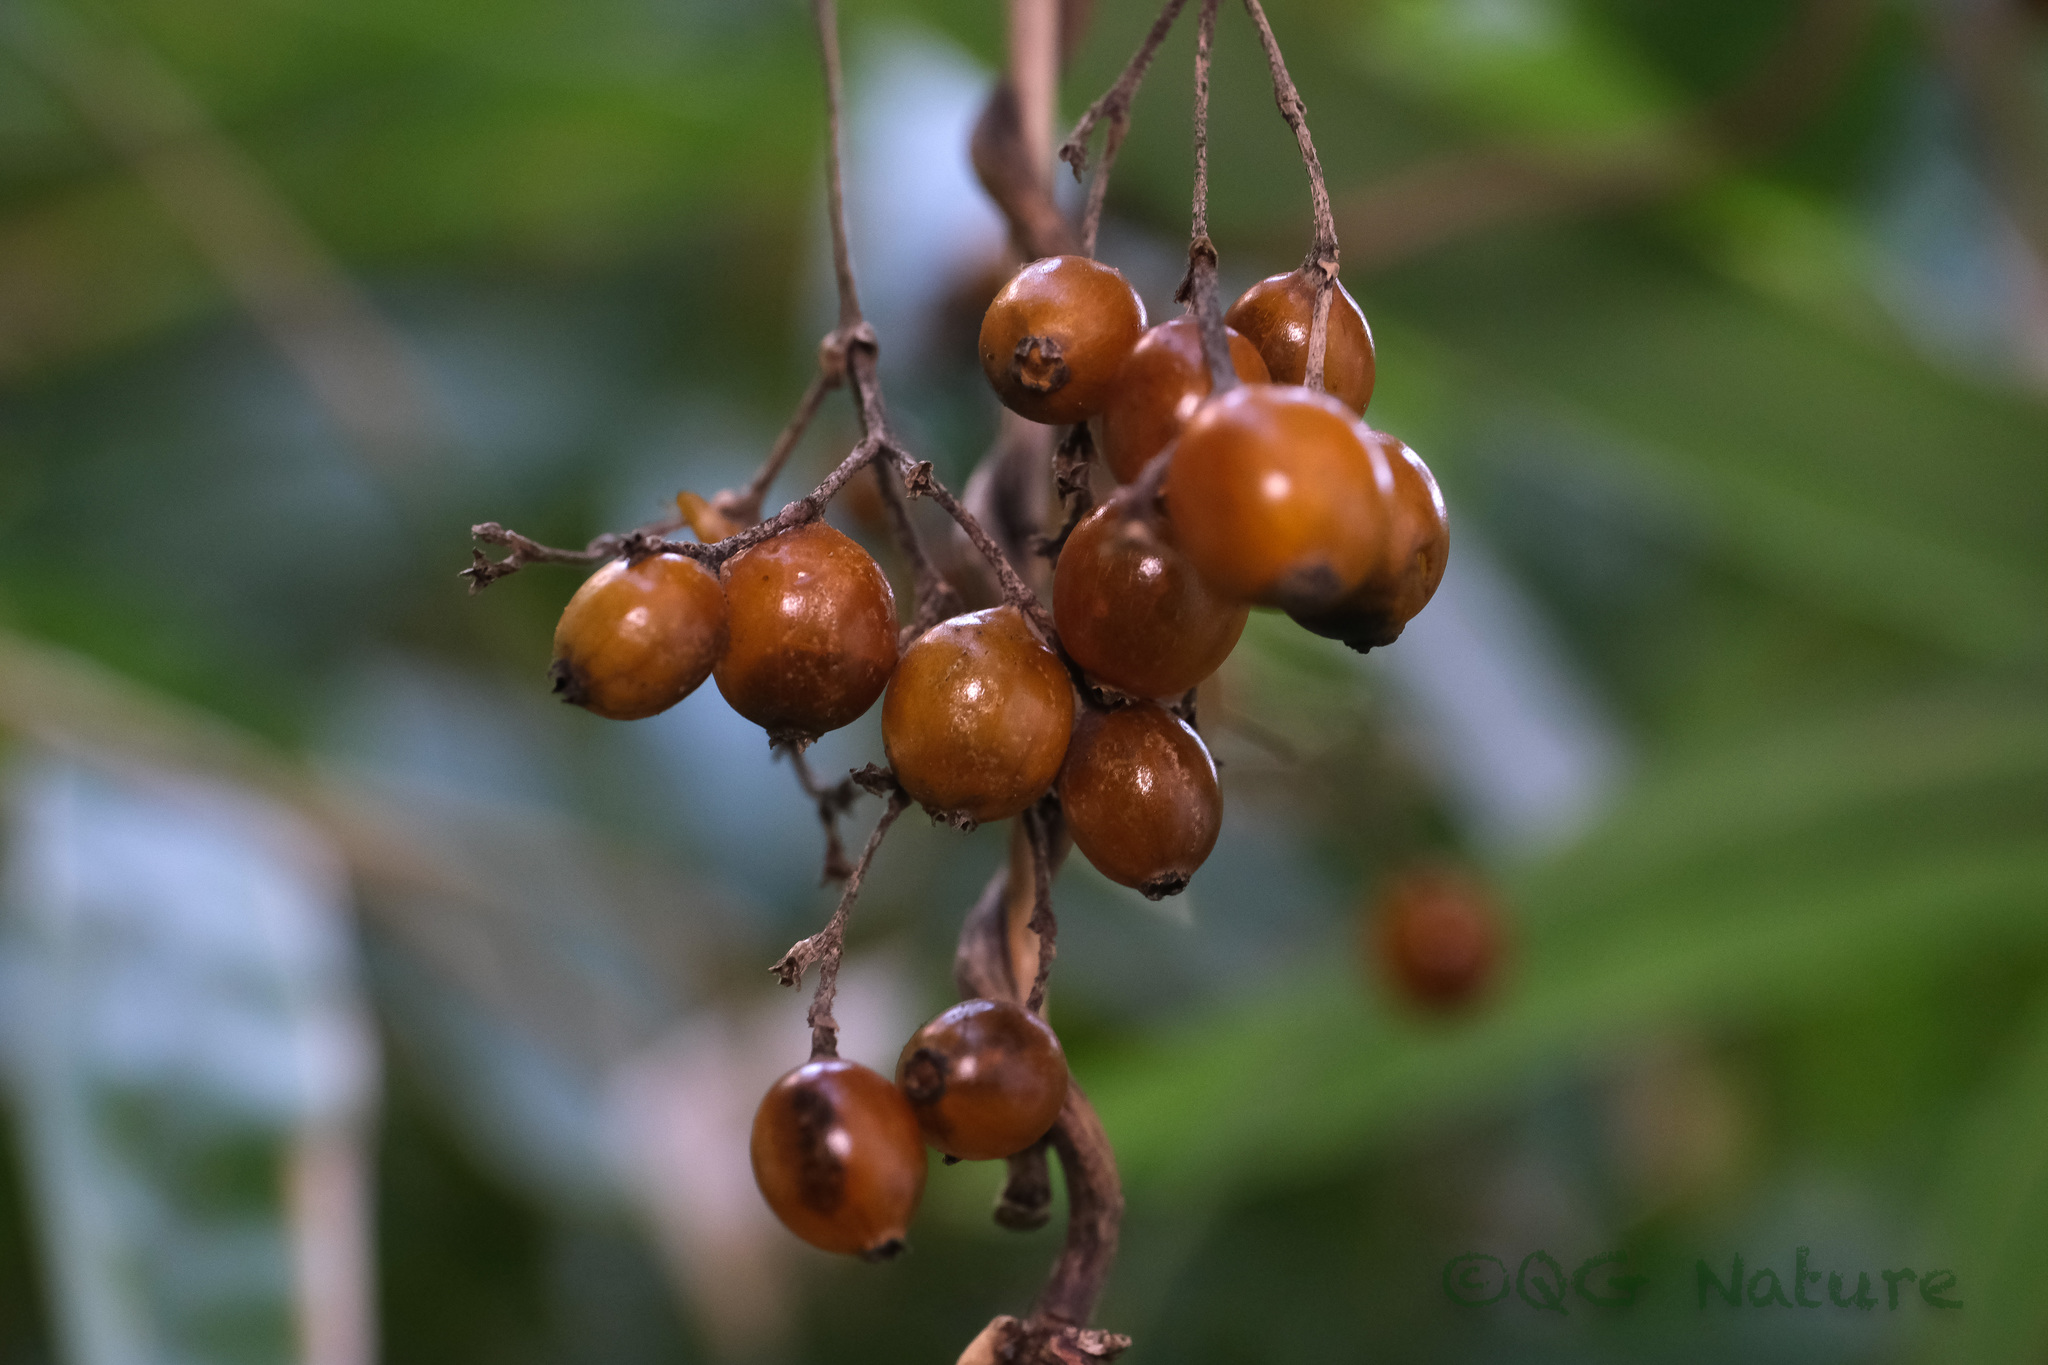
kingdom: Plantae
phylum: Tracheophyta
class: Magnoliopsida
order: Gentianales
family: Rubiaceae
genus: Paederia
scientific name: Paederia foetida
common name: Stinkvine
